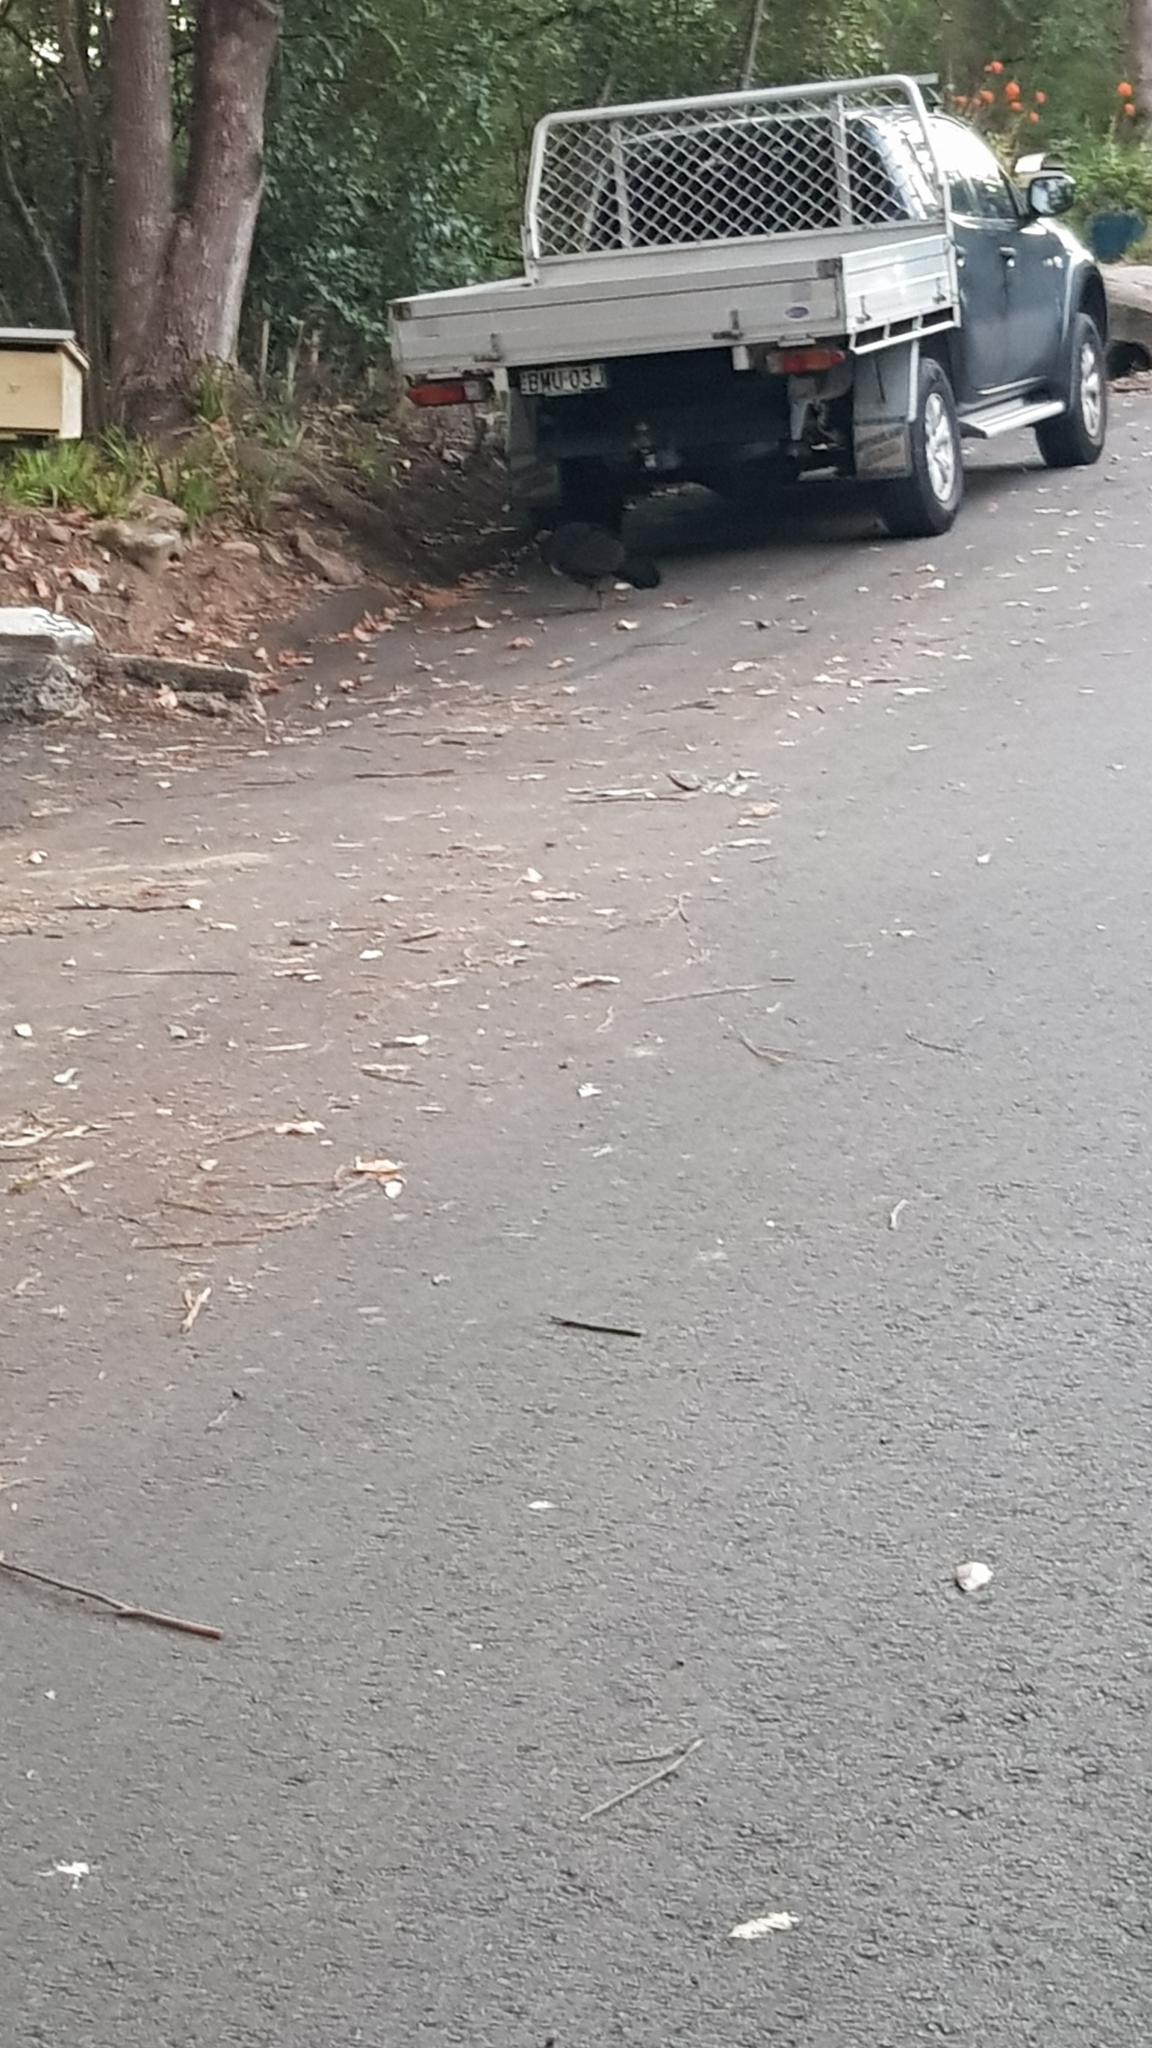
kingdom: Animalia
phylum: Chordata
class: Aves
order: Galliformes
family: Megapodiidae
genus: Alectura
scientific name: Alectura lathami
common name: Australian brushturkey
